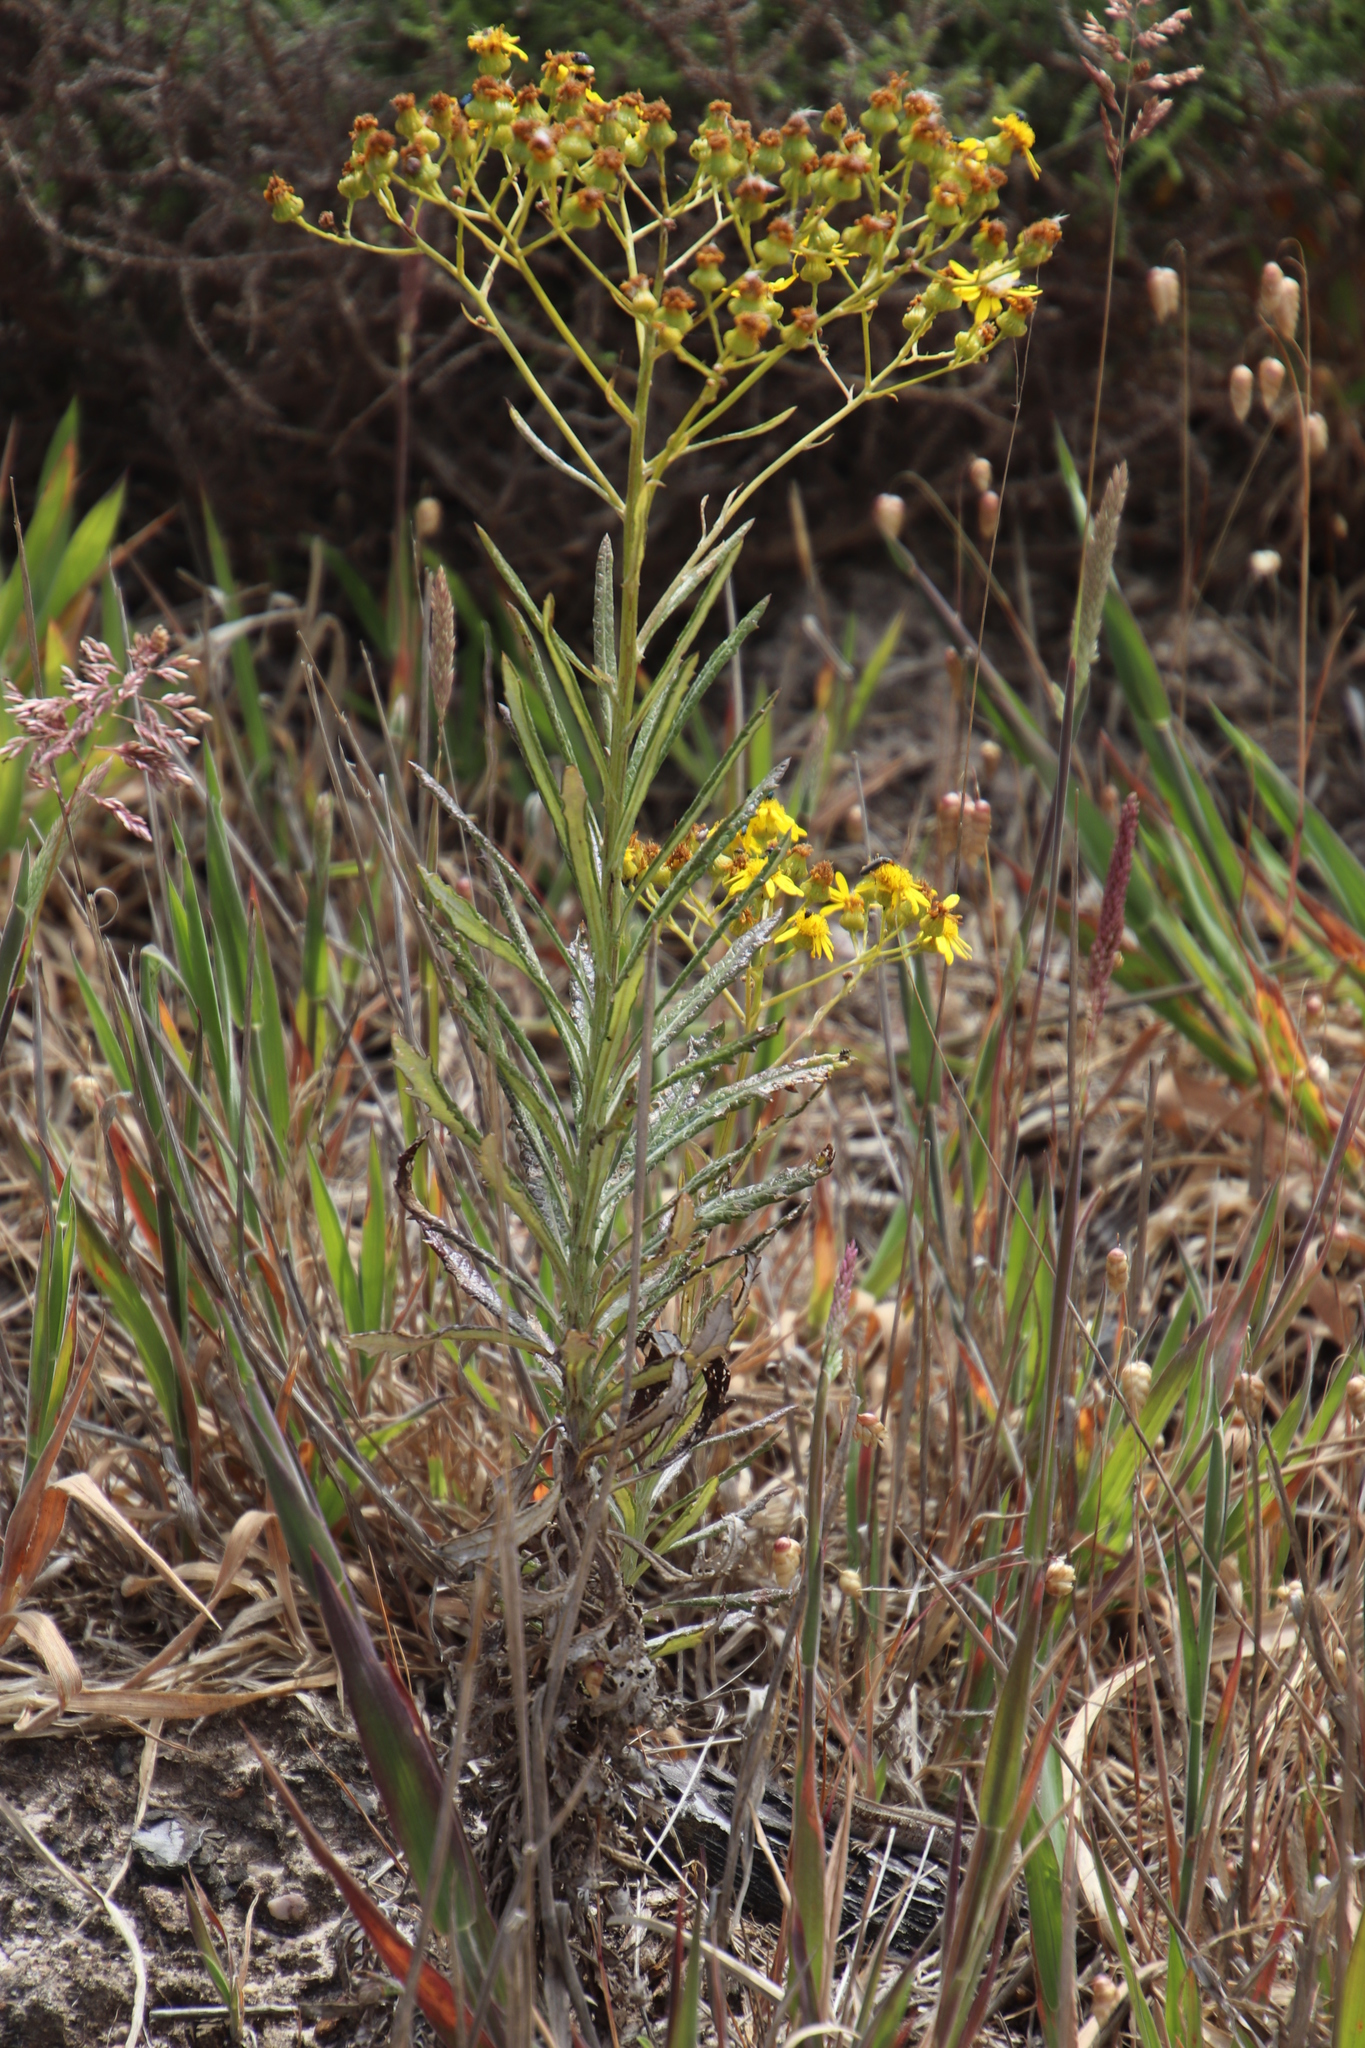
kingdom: Plantae
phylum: Tracheophyta
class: Magnoliopsida
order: Asterales
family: Asteraceae
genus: Senecio
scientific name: Senecio pterophorus
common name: Shoddy ragwort
